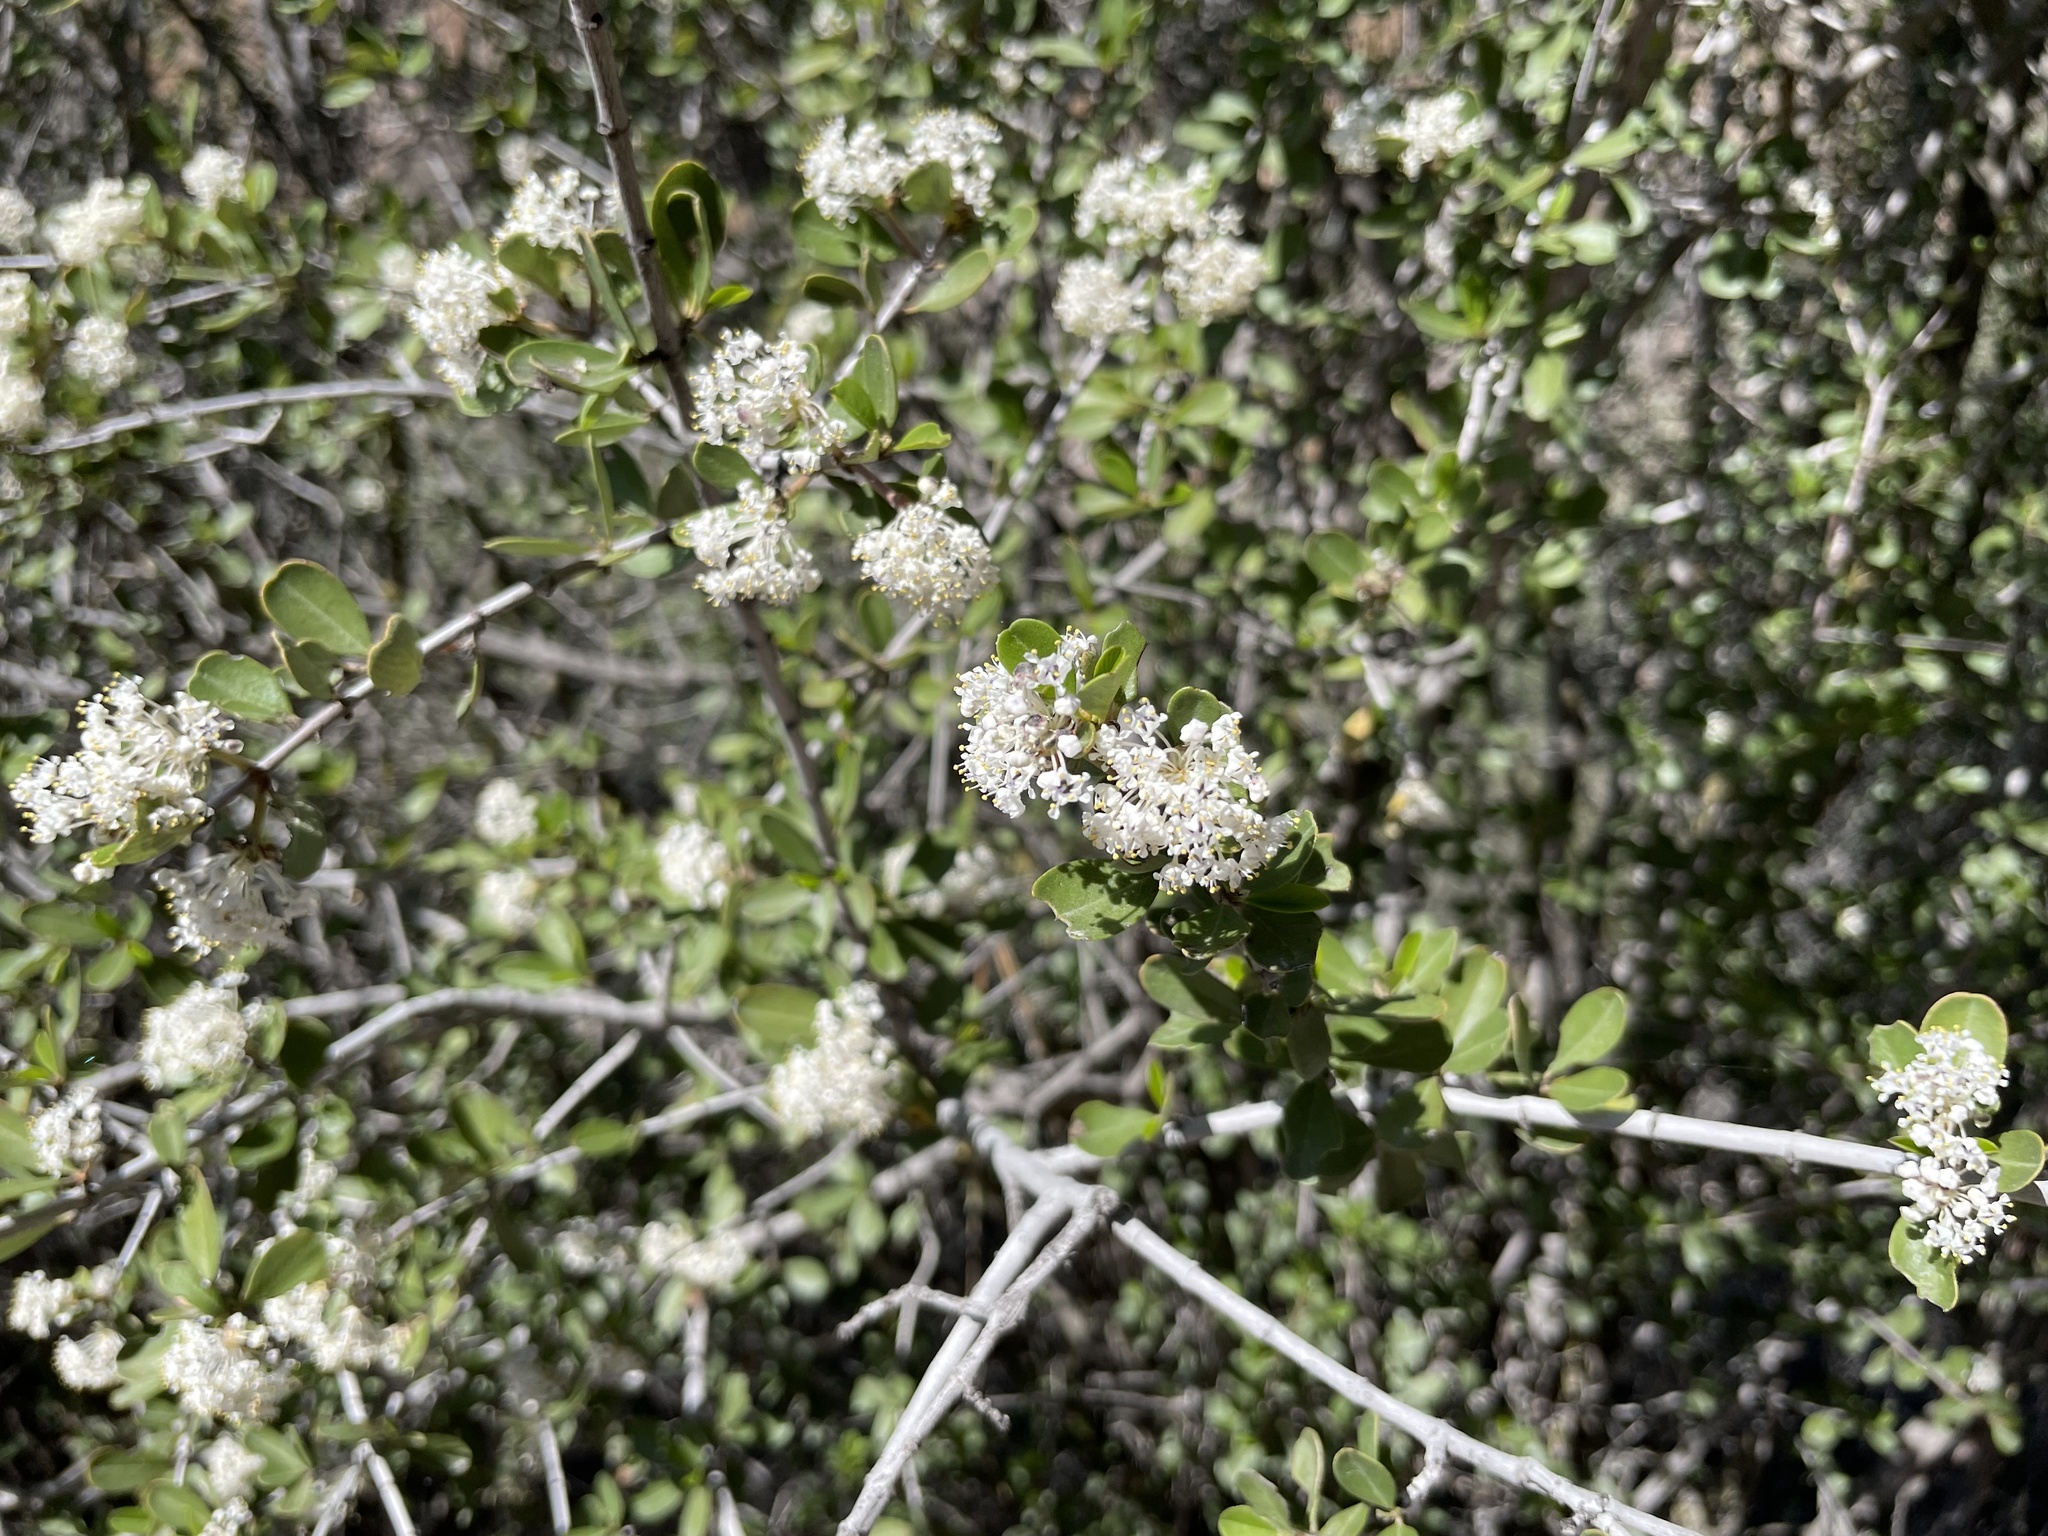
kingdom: Plantae
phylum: Tracheophyta
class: Magnoliopsida
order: Rosales
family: Rhamnaceae
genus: Ceanothus
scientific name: Ceanothus cuneatus
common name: Cuneate ceanothus
